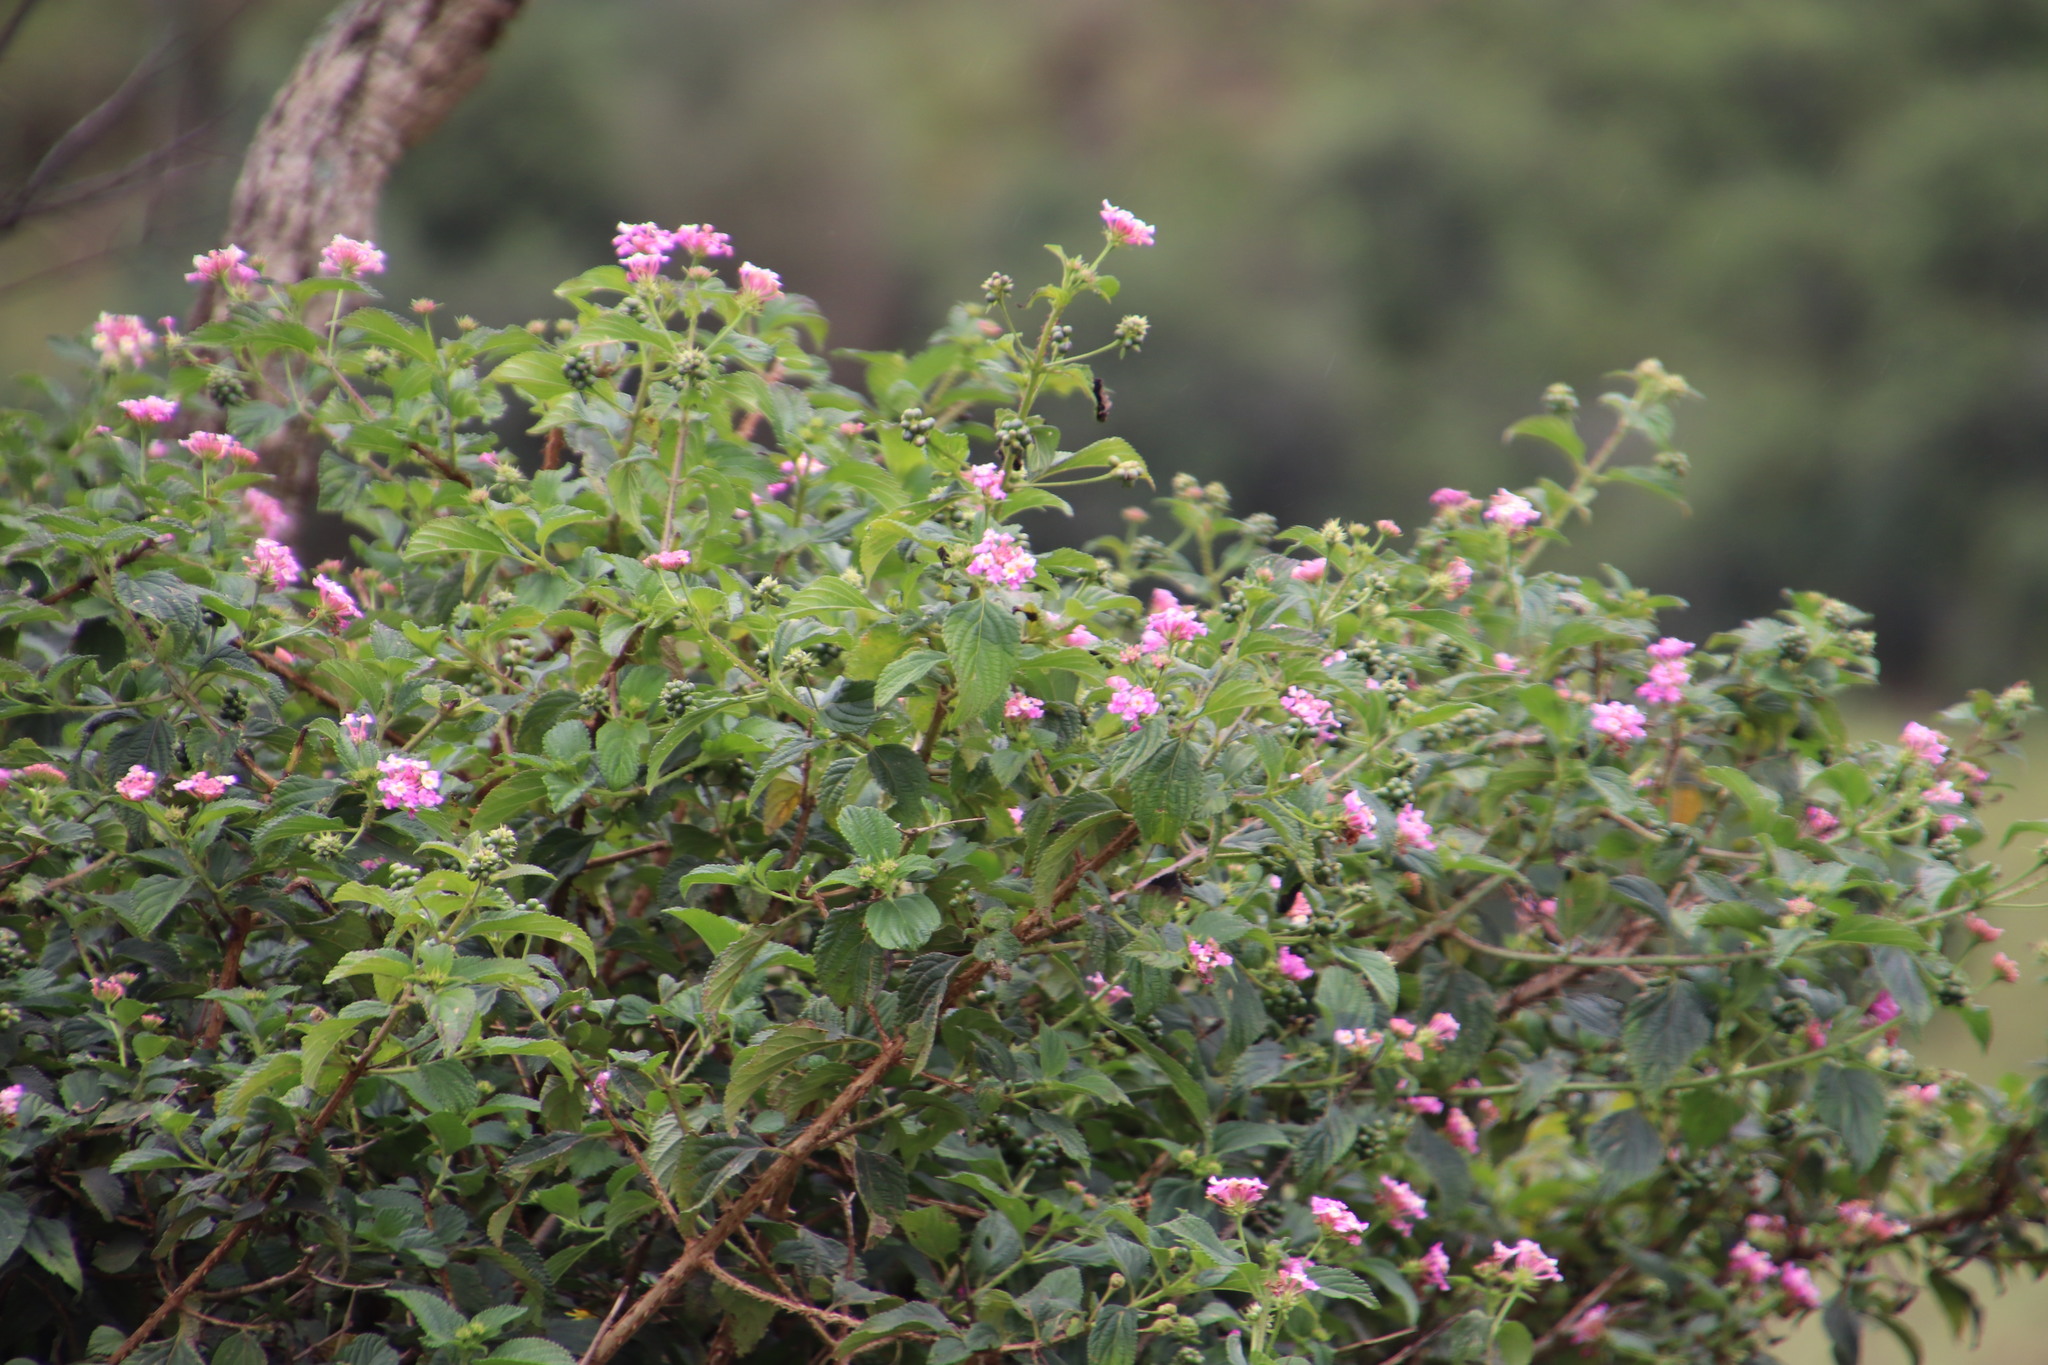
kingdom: Plantae
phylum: Tracheophyta
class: Magnoliopsida
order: Lamiales
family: Verbenaceae
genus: Lantana
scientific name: Lantana camara
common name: Lantana
